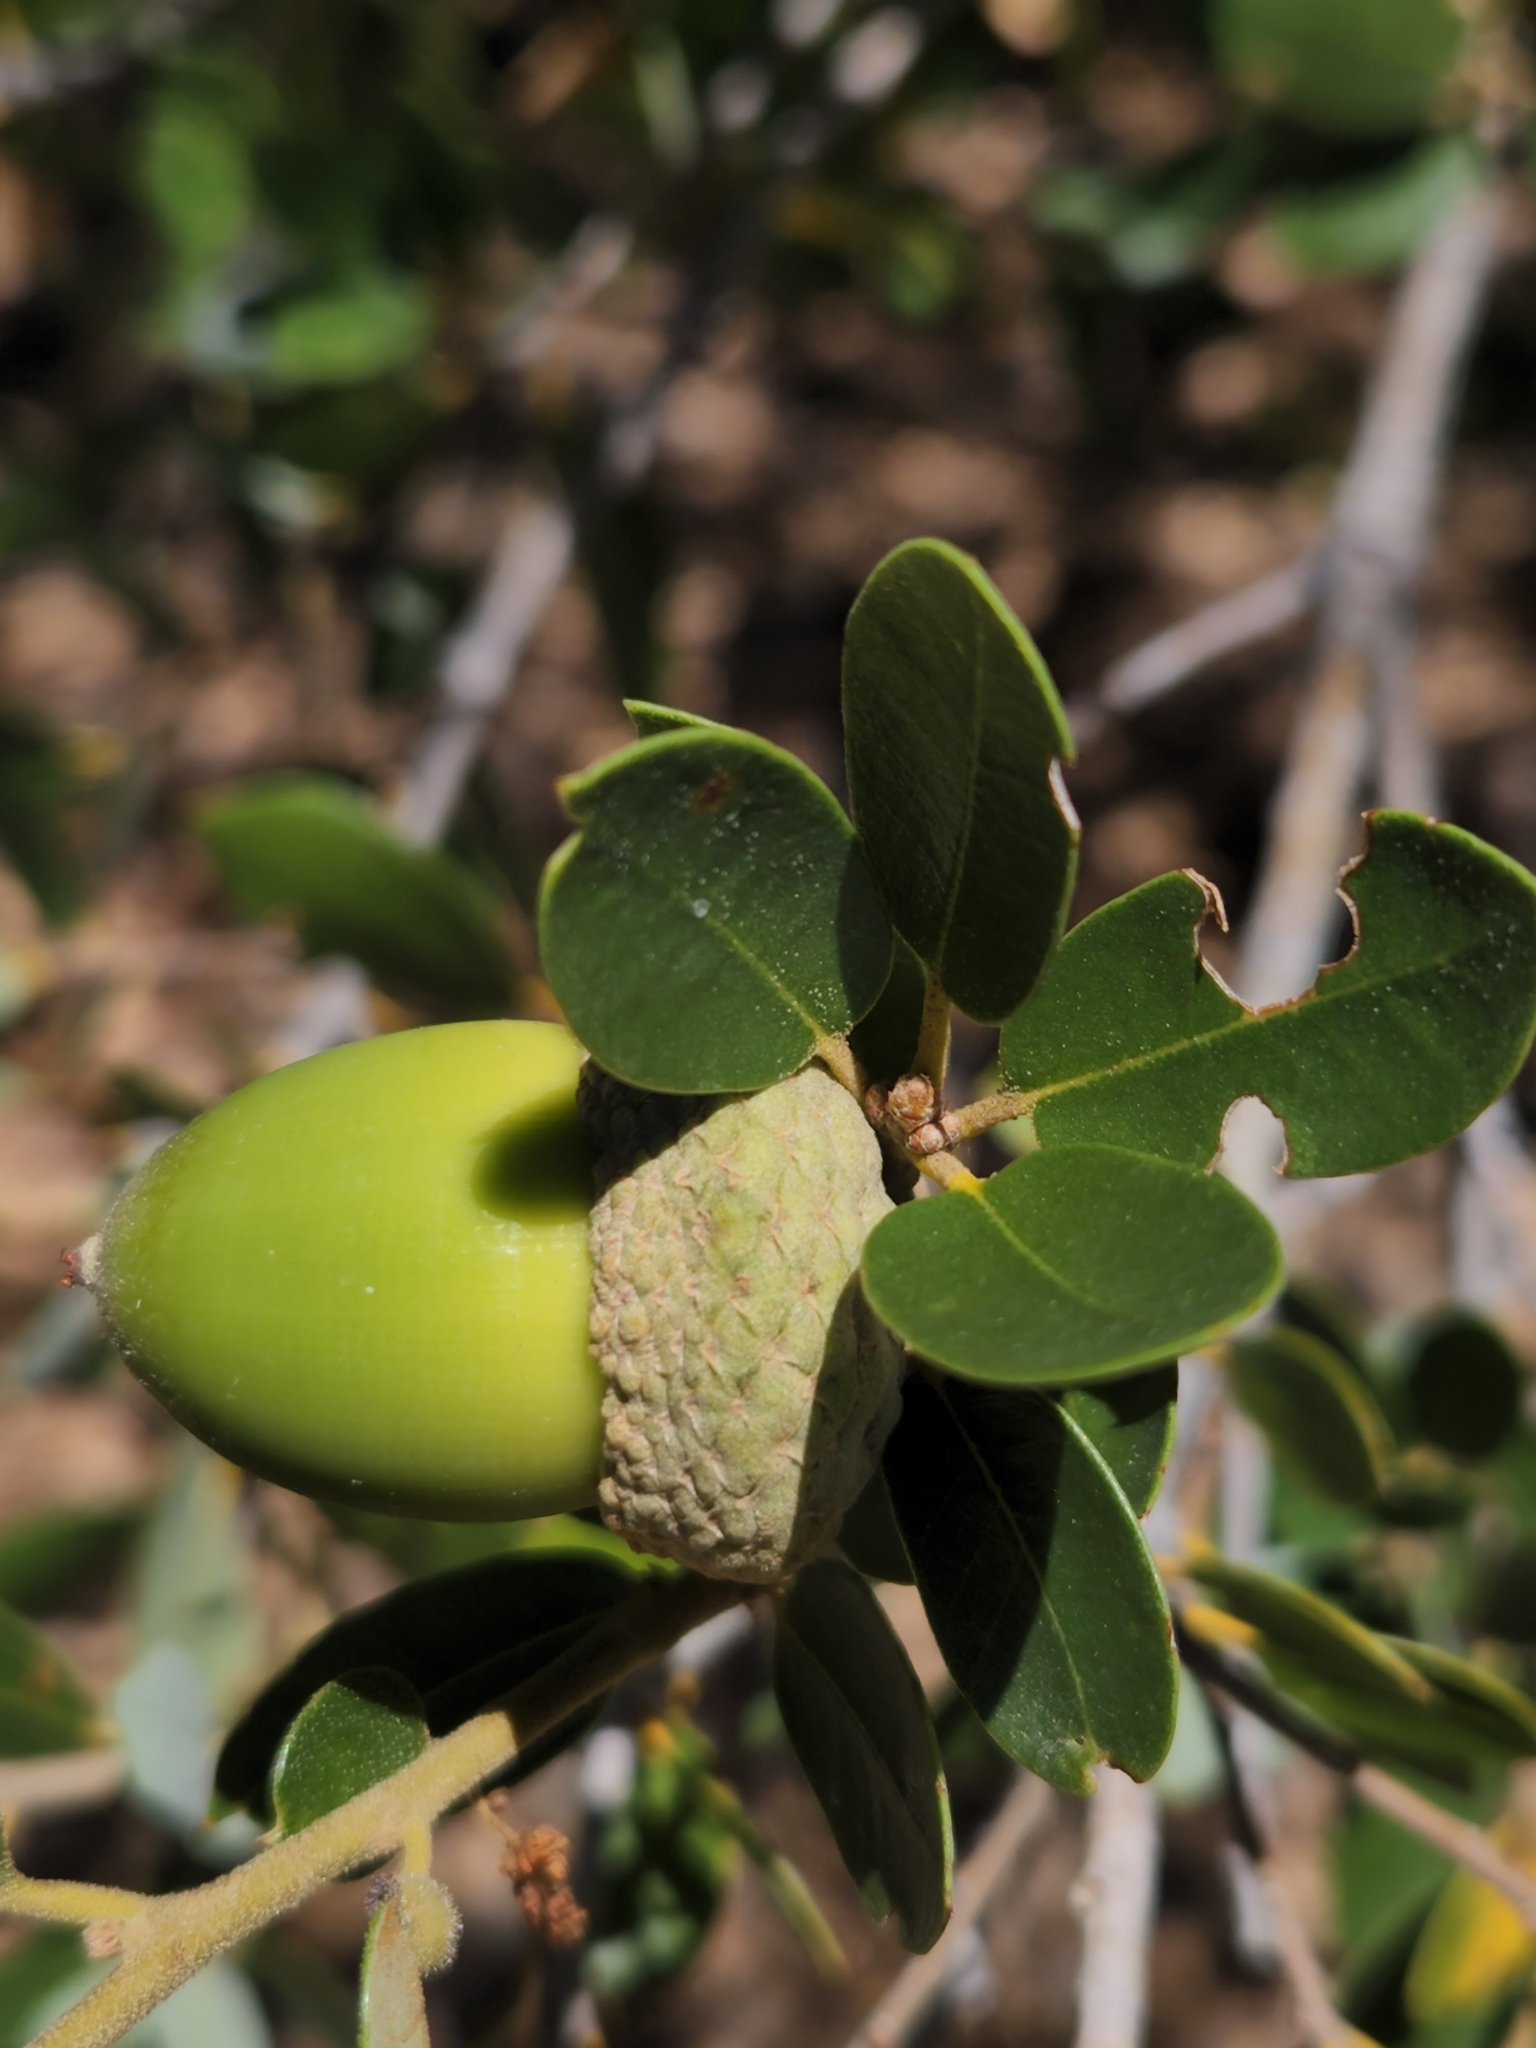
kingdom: Plantae
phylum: Tracheophyta
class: Magnoliopsida
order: Fagales
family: Fagaceae
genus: Quercus
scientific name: Quercus chrysolepis
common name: Canyon live oak
